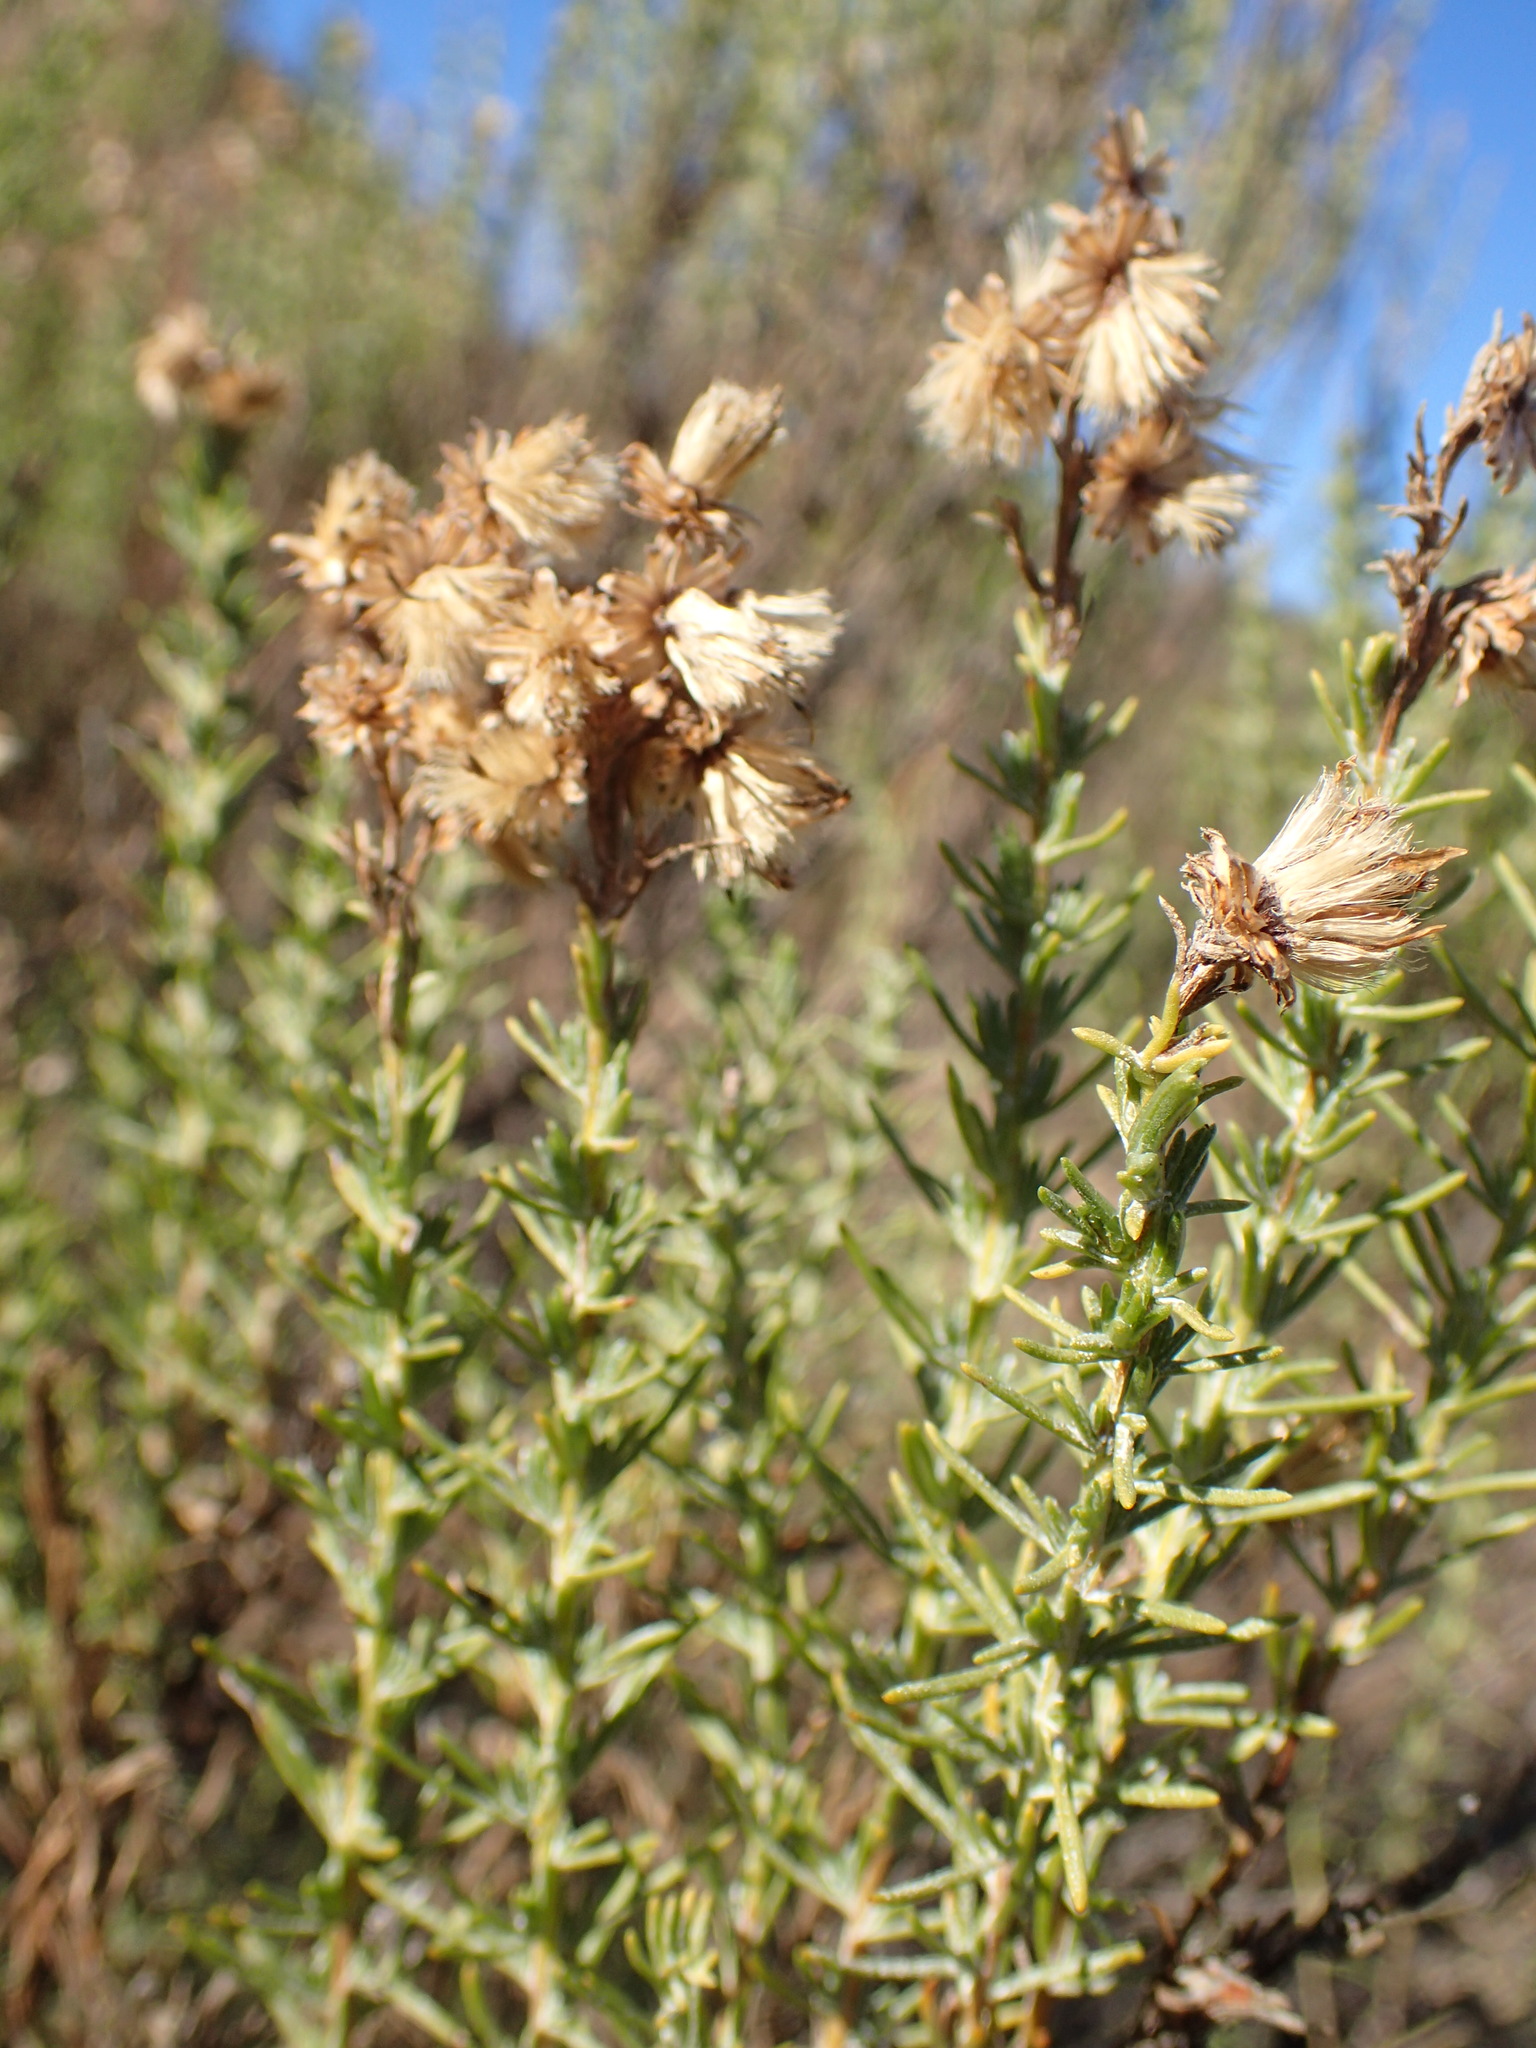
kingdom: Plantae
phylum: Tracheophyta
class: Magnoliopsida
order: Asterales
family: Asteraceae
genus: Ericameria
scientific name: Ericameria ericoides
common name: California goldenbush
